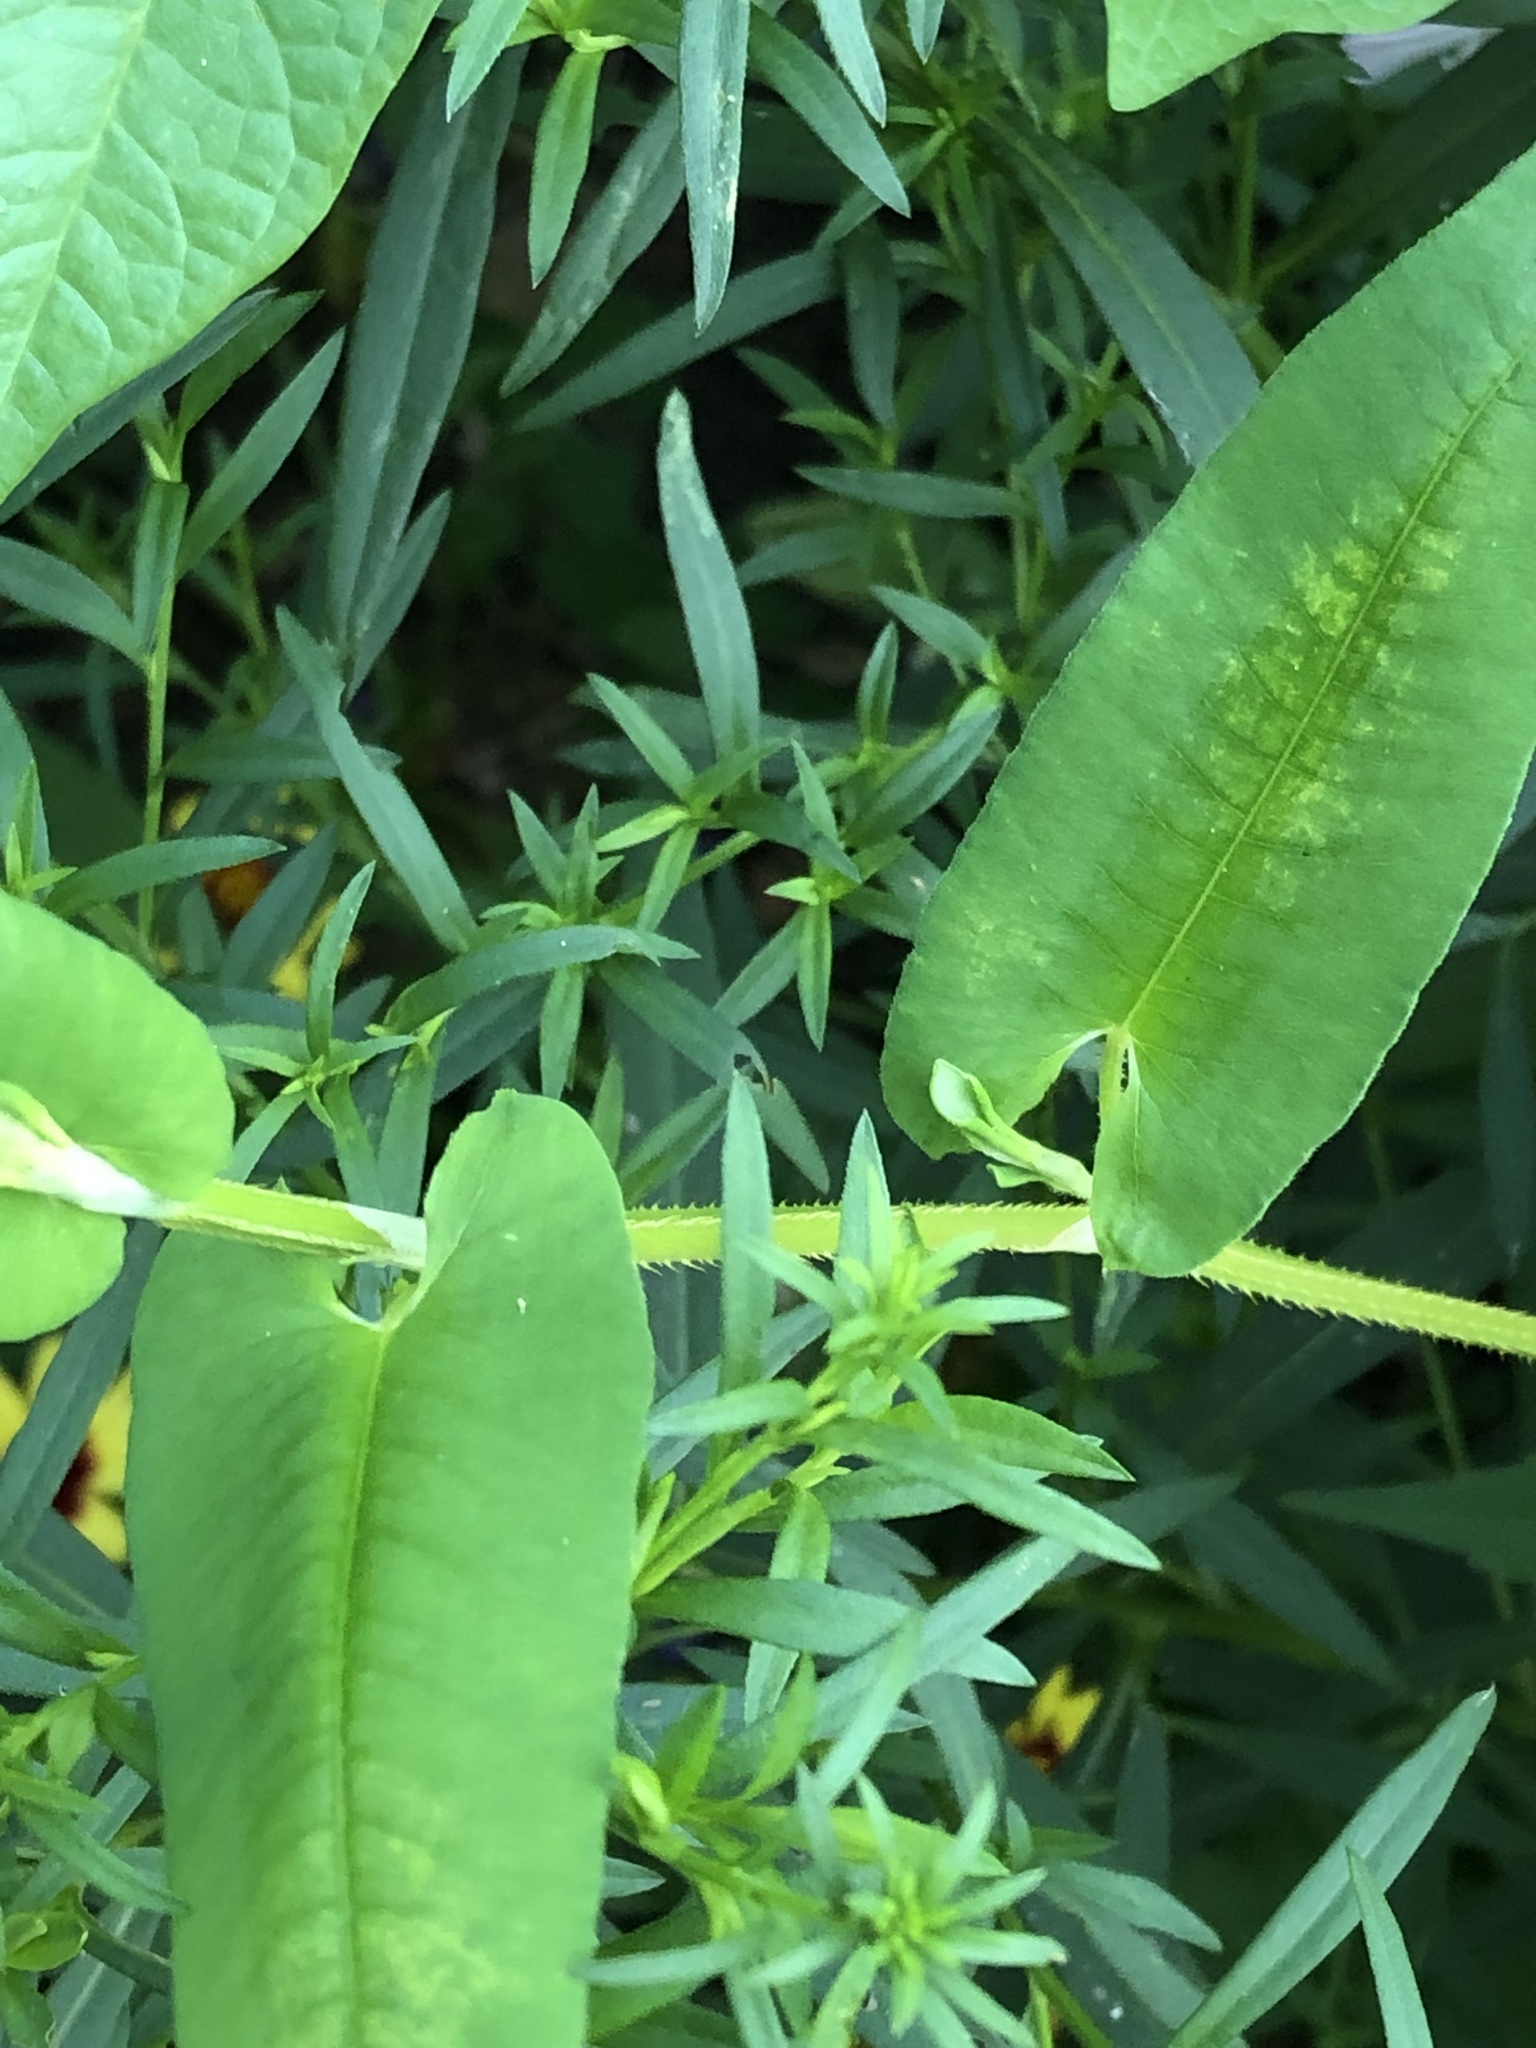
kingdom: Plantae
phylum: Tracheophyta
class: Magnoliopsida
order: Caryophyllales
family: Polygonaceae
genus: Persicaria
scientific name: Persicaria sagittata
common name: American tearthumb
